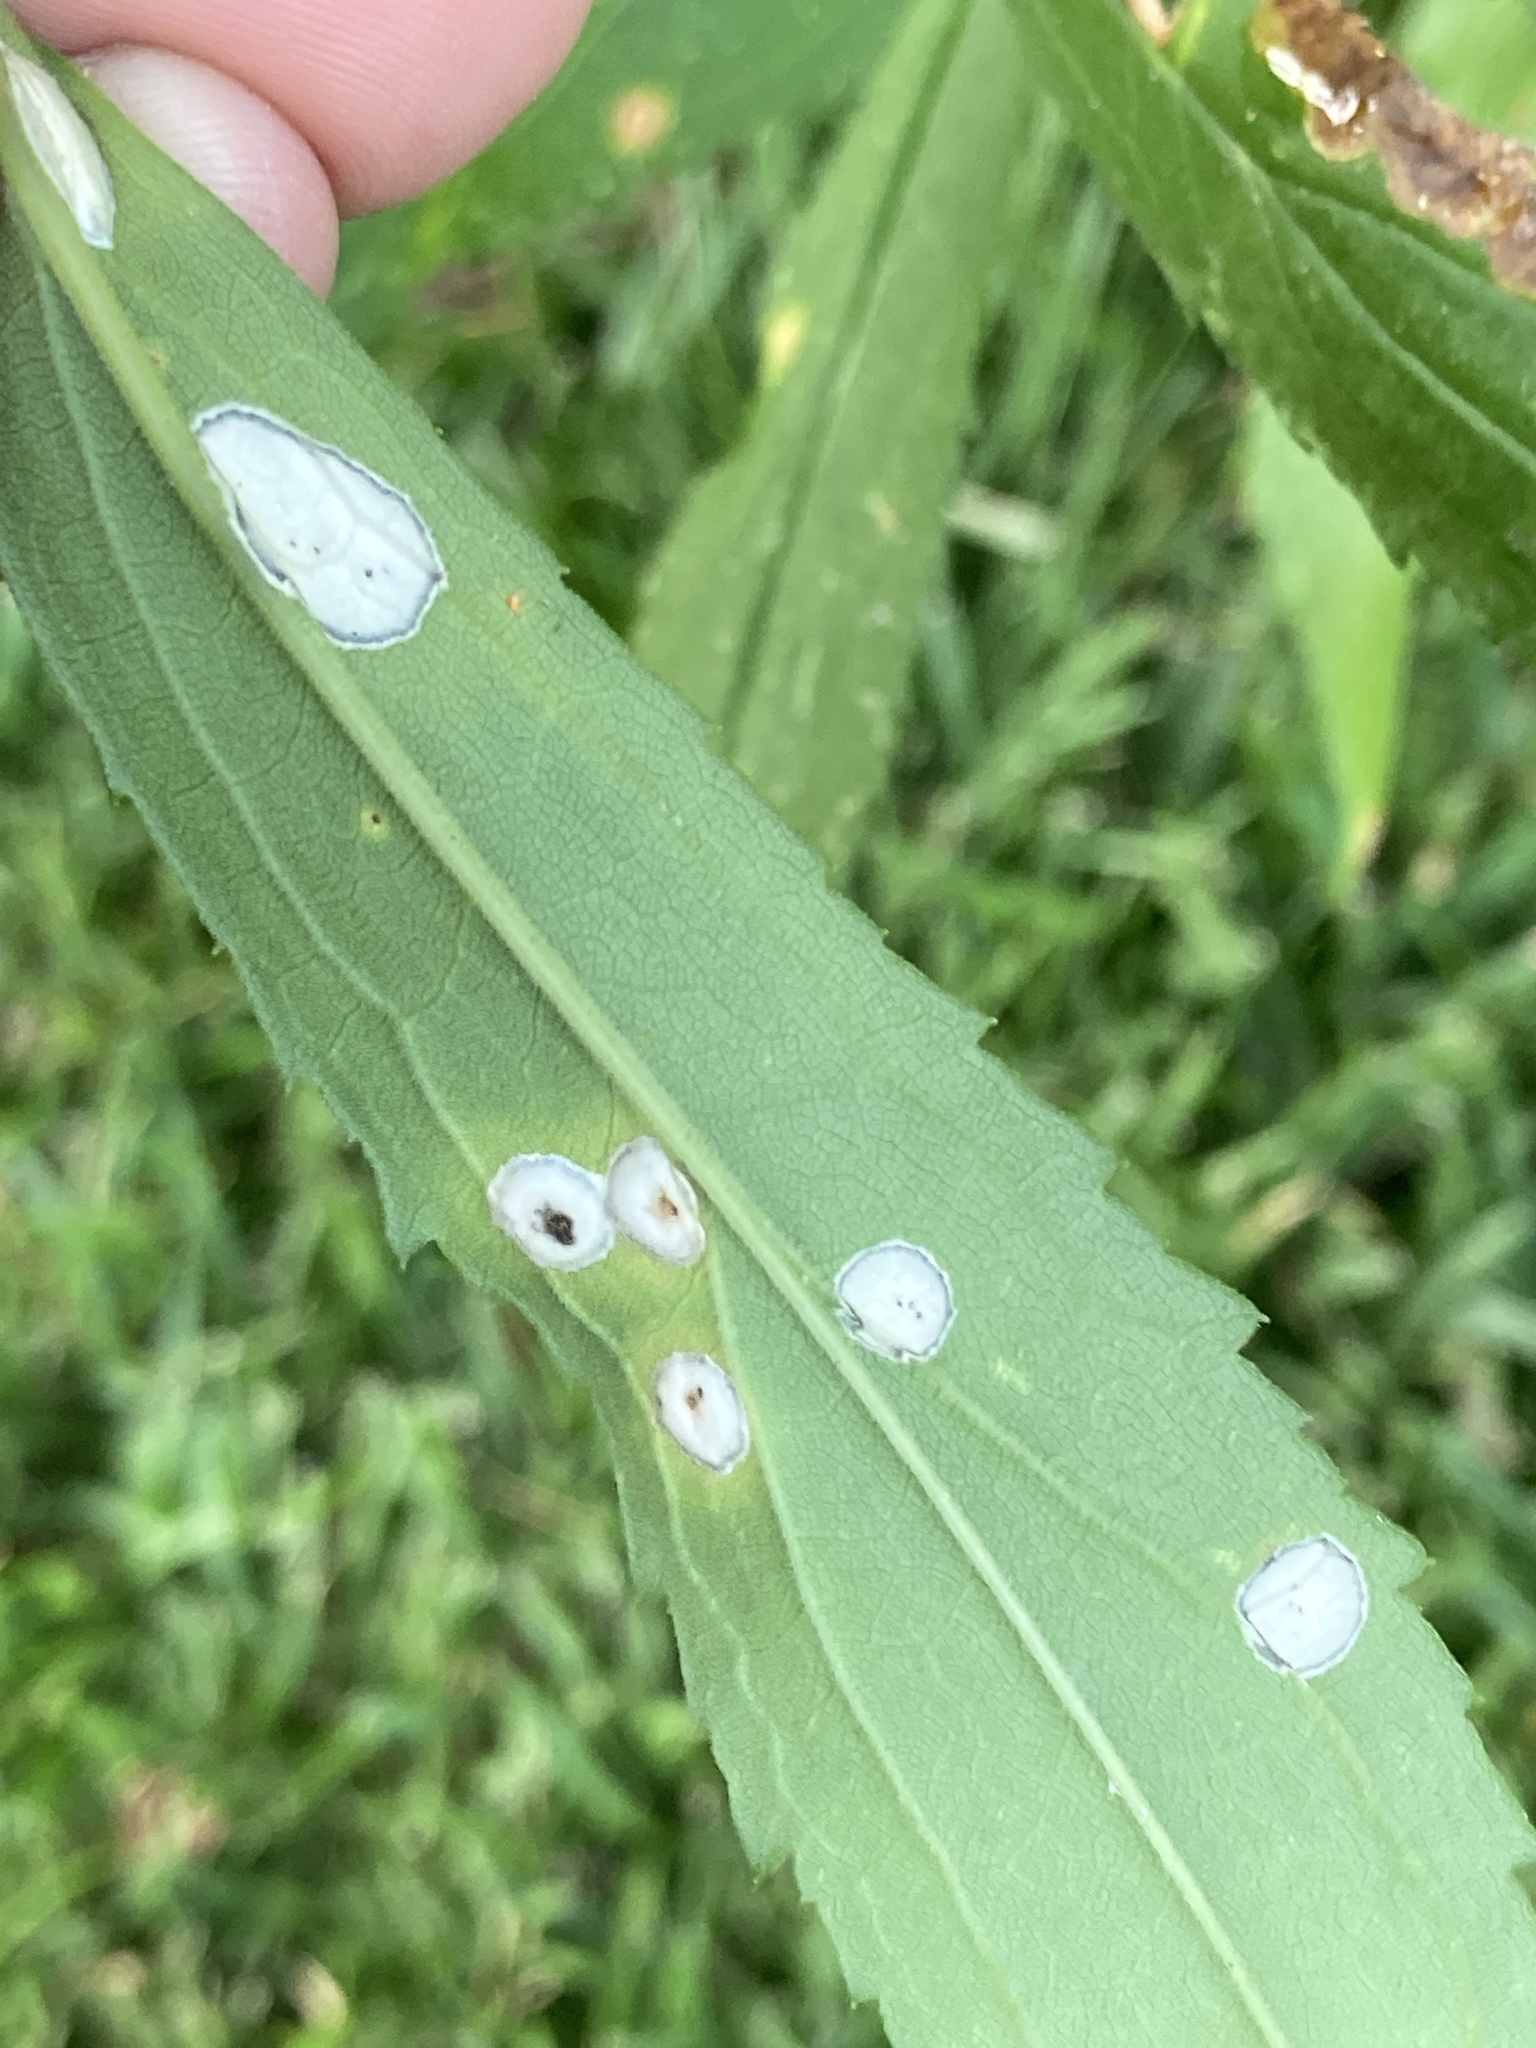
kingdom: Animalia
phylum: Arthropoda
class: Insecta
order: Diptera
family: Cecidomyiidae
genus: Asteromyia
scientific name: Asteromyia carbonifera
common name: Carbonifera goldenrod gall midge
